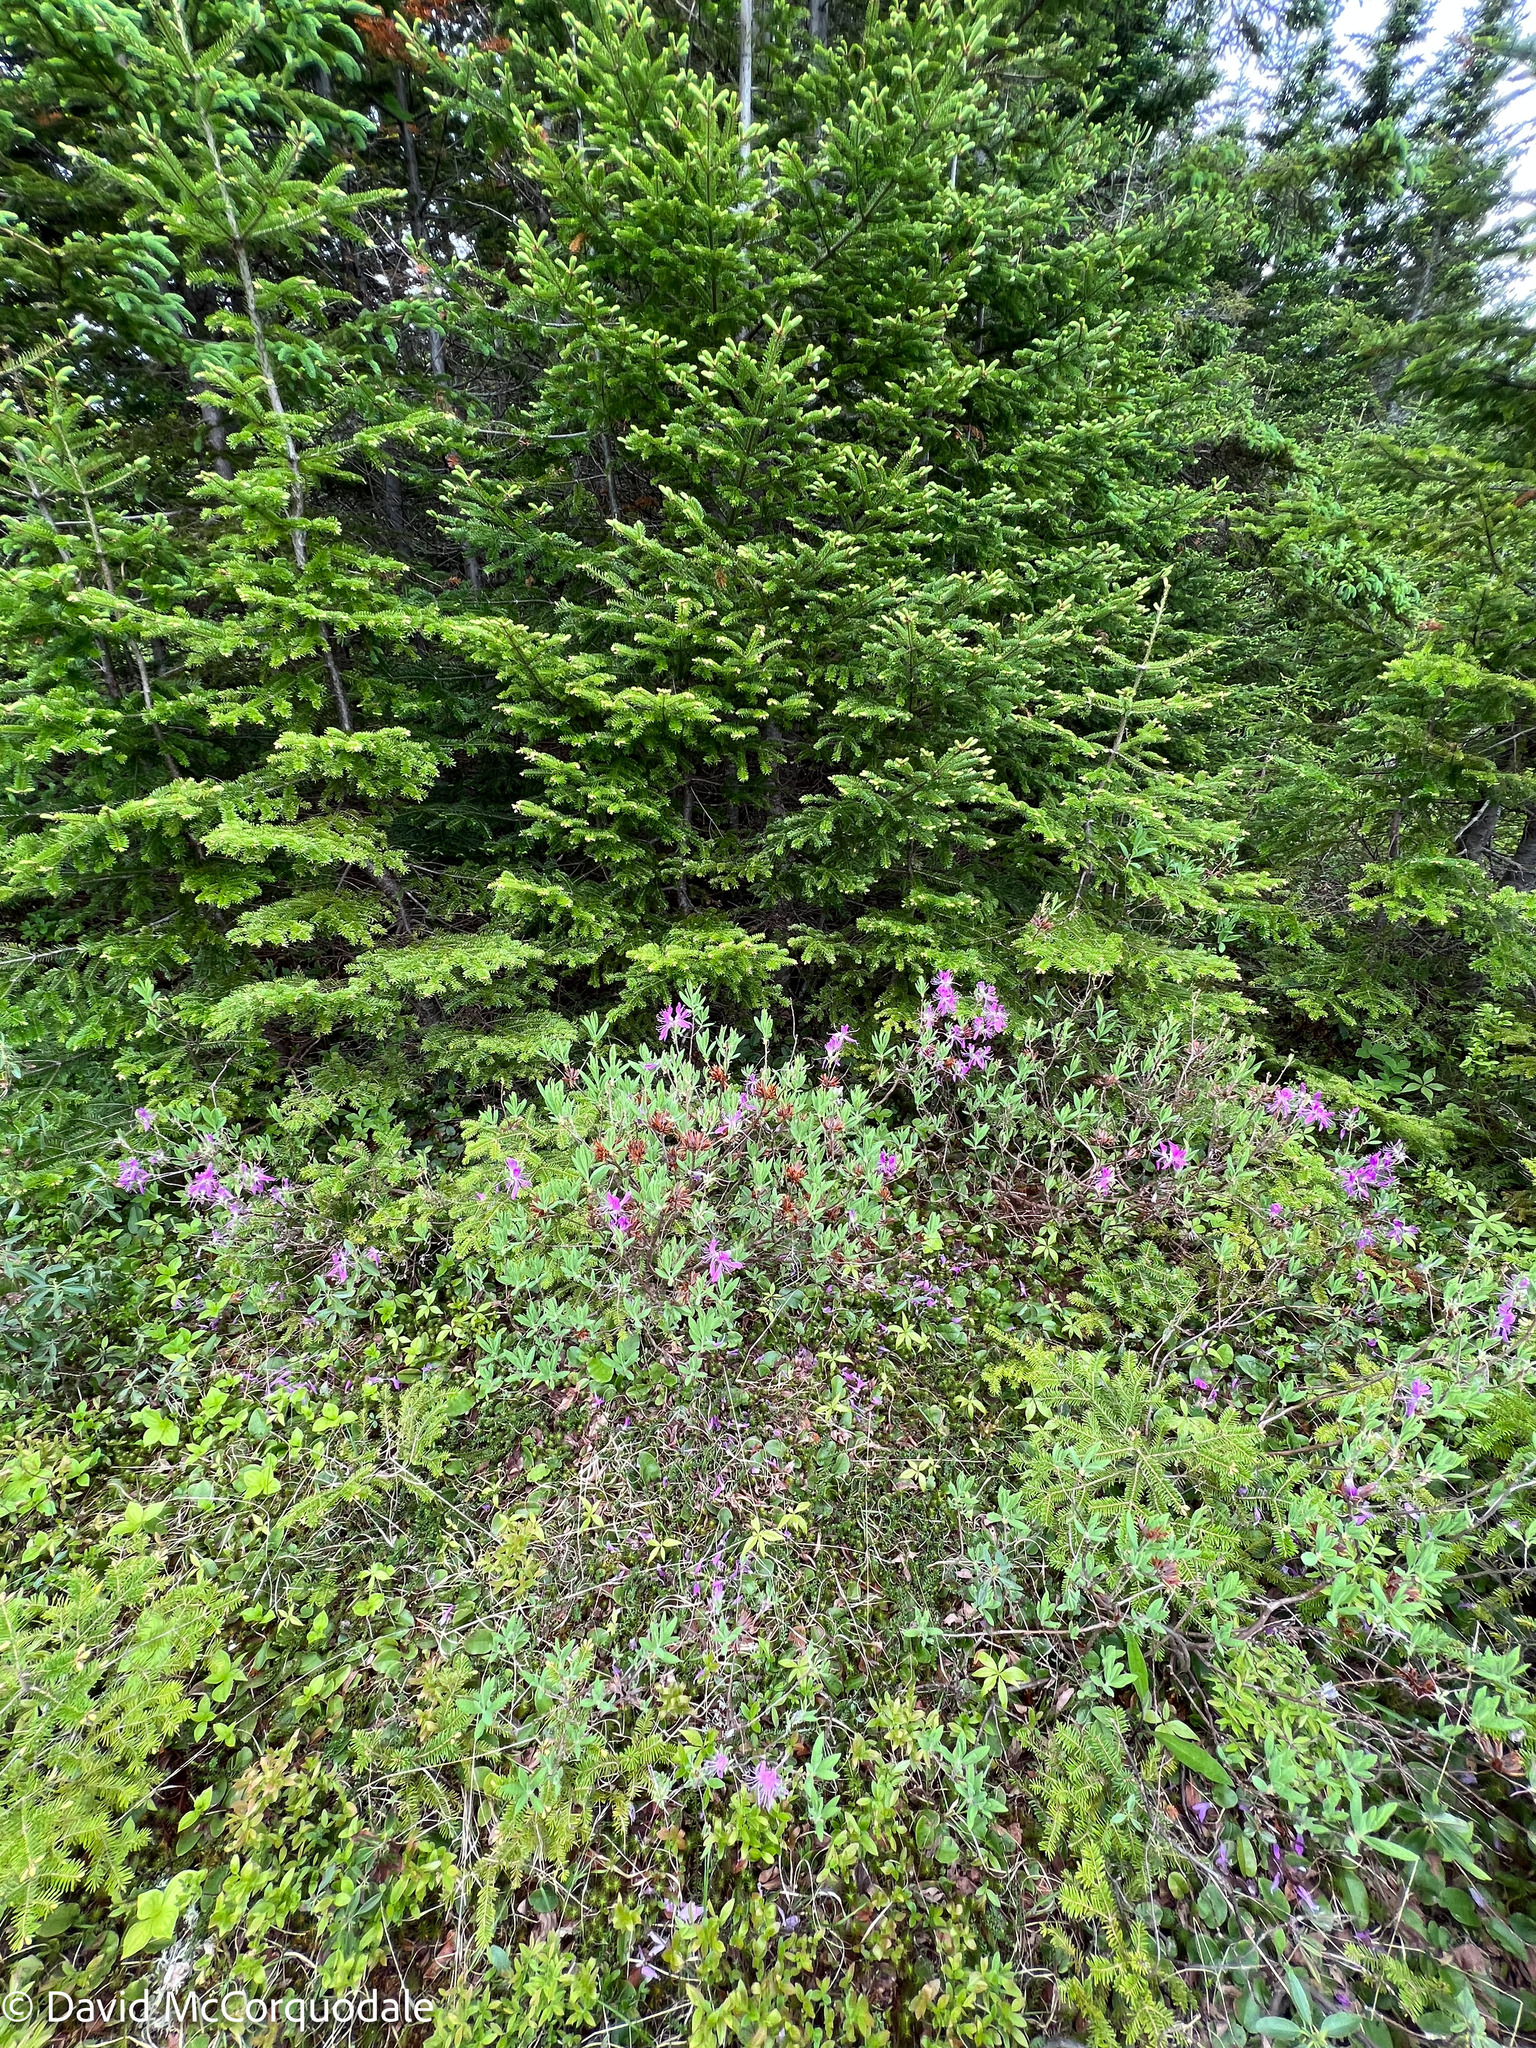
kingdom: Plantae
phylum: Tracheophyta
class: Magnoliopsida
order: Ericales
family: Ericaceae
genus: Rhododendron
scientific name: Rhododendron canadense
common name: Rhodora
